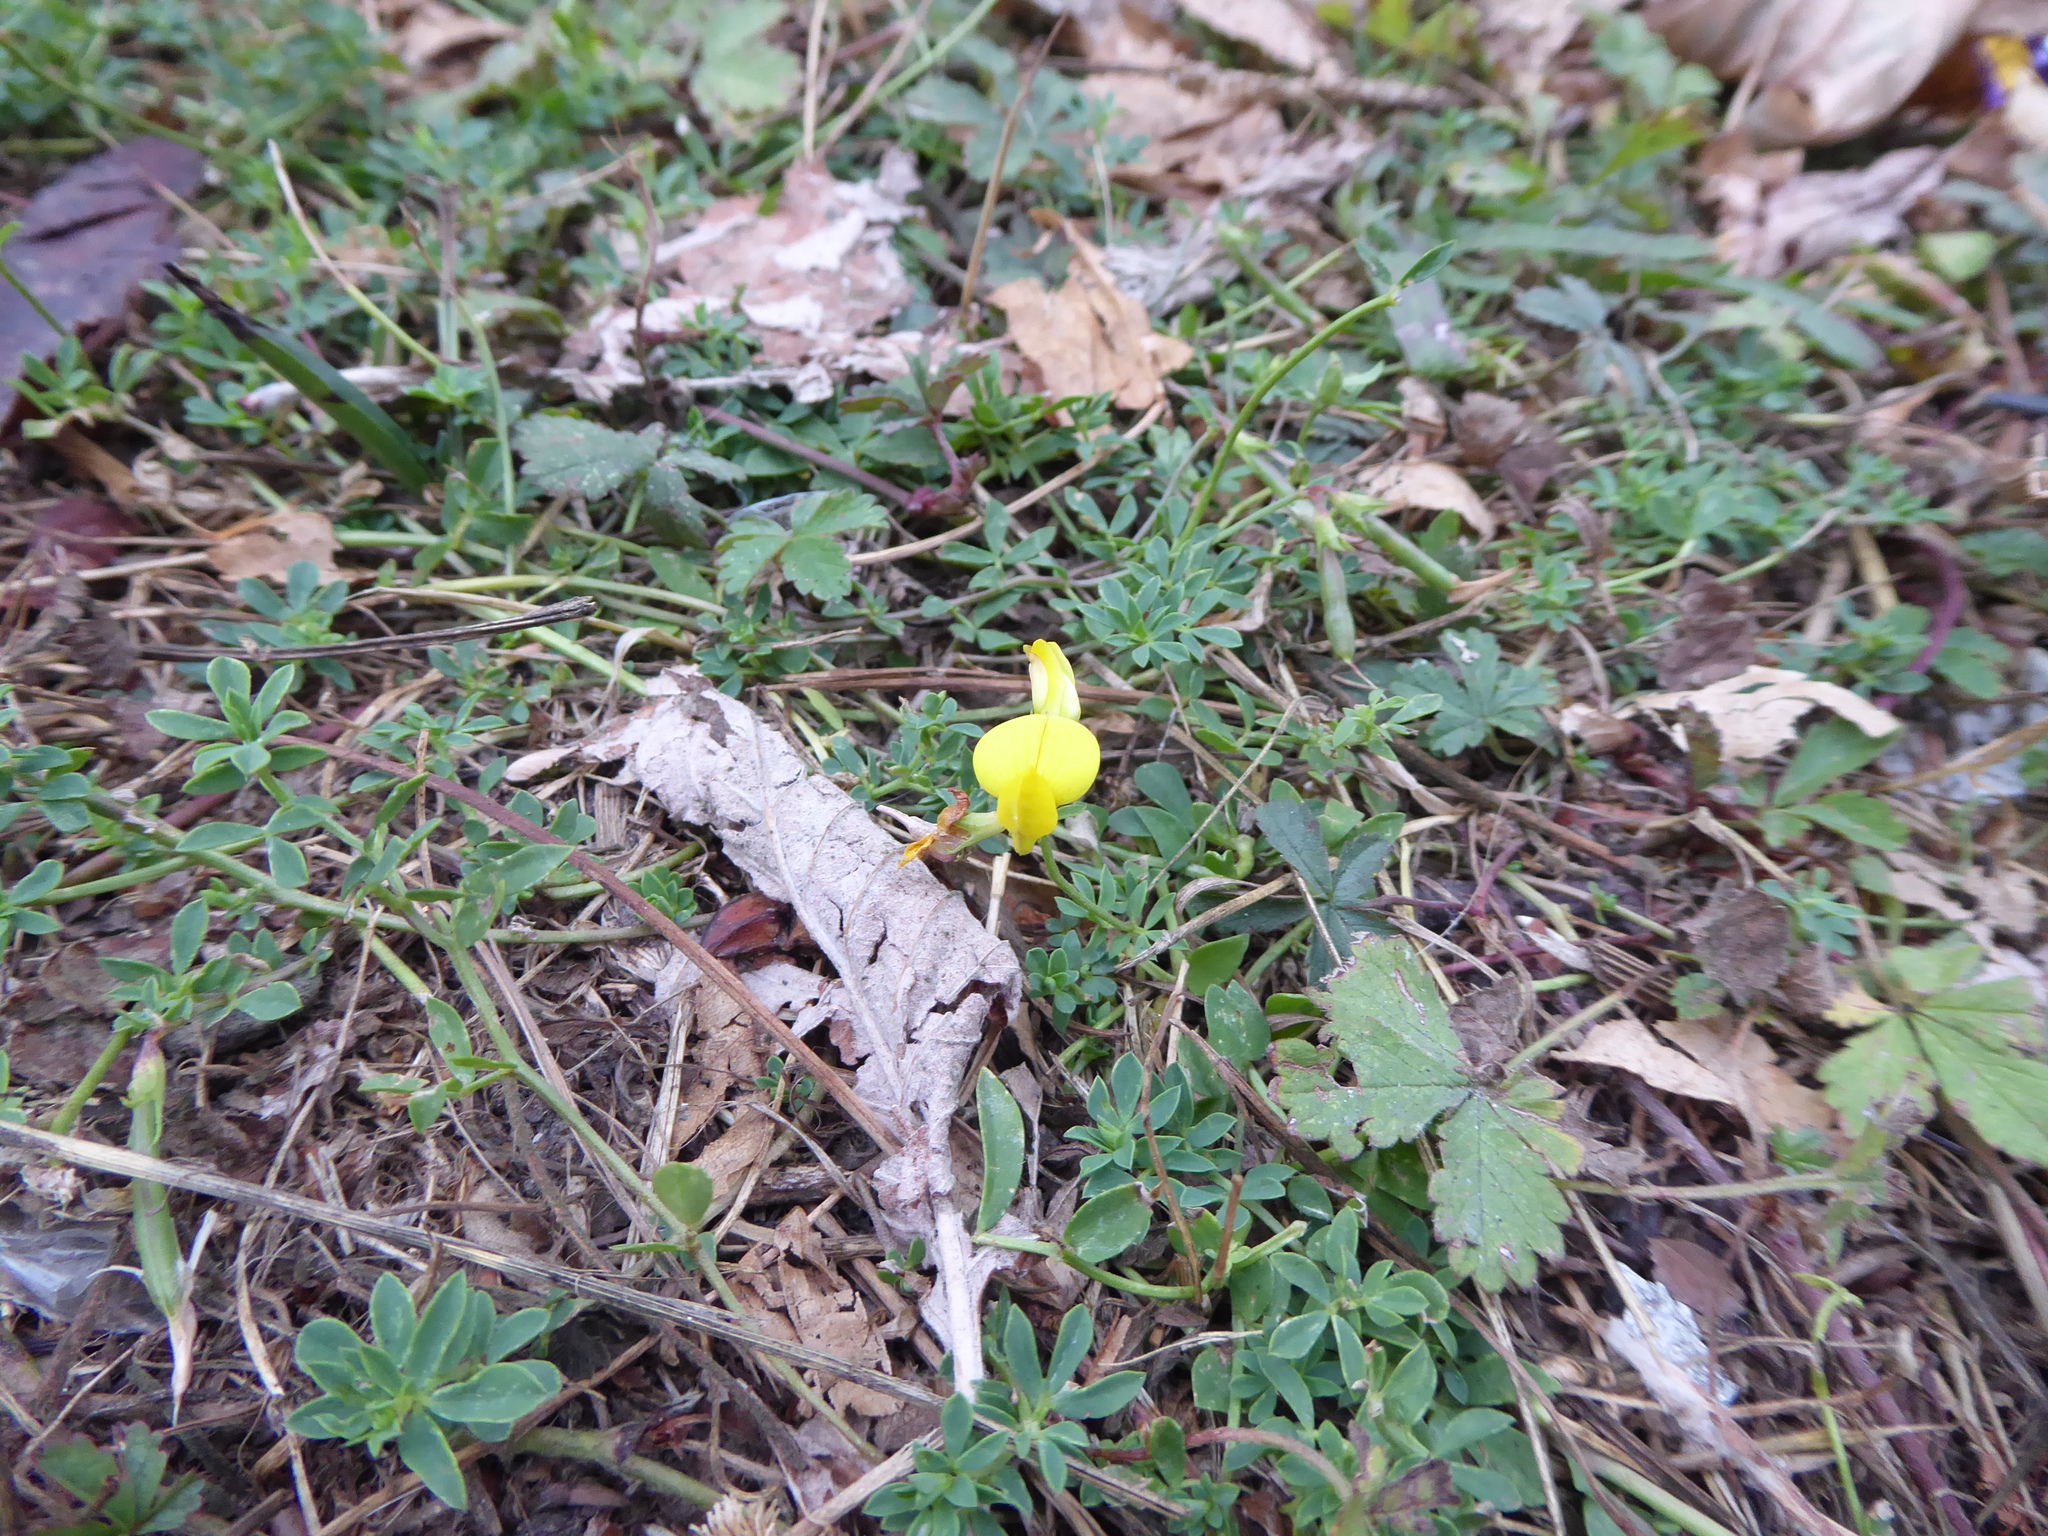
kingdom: Plantae
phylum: Tracheophyta
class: Magnoliopsida
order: Fabales
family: Fabaceae
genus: Lotus
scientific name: Lotus corniculatus
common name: Common bird's-foot-trefoil
